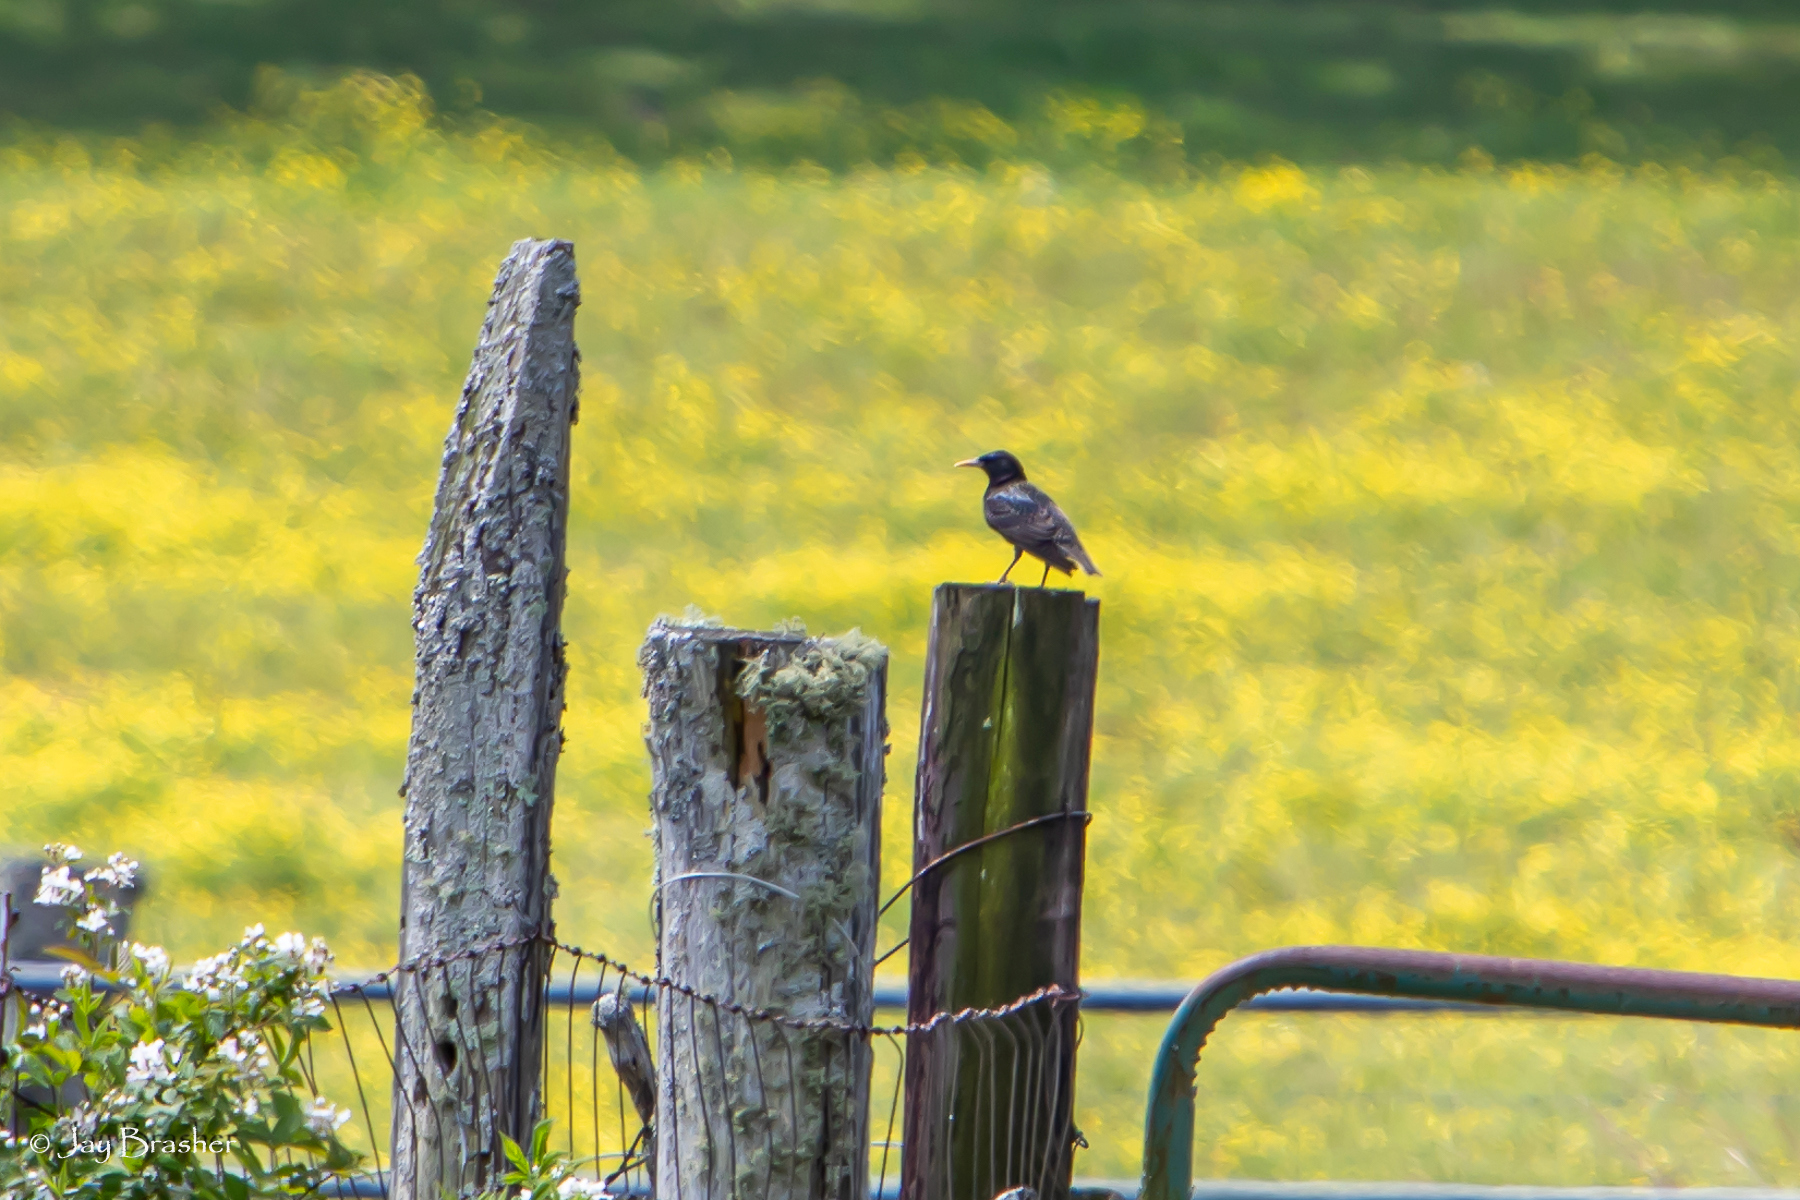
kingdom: Animalia
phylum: Chordata
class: Aves
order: Passeriformes
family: Sturnidae
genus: Sturnus
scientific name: Sturnus vulgaris
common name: Common starling
